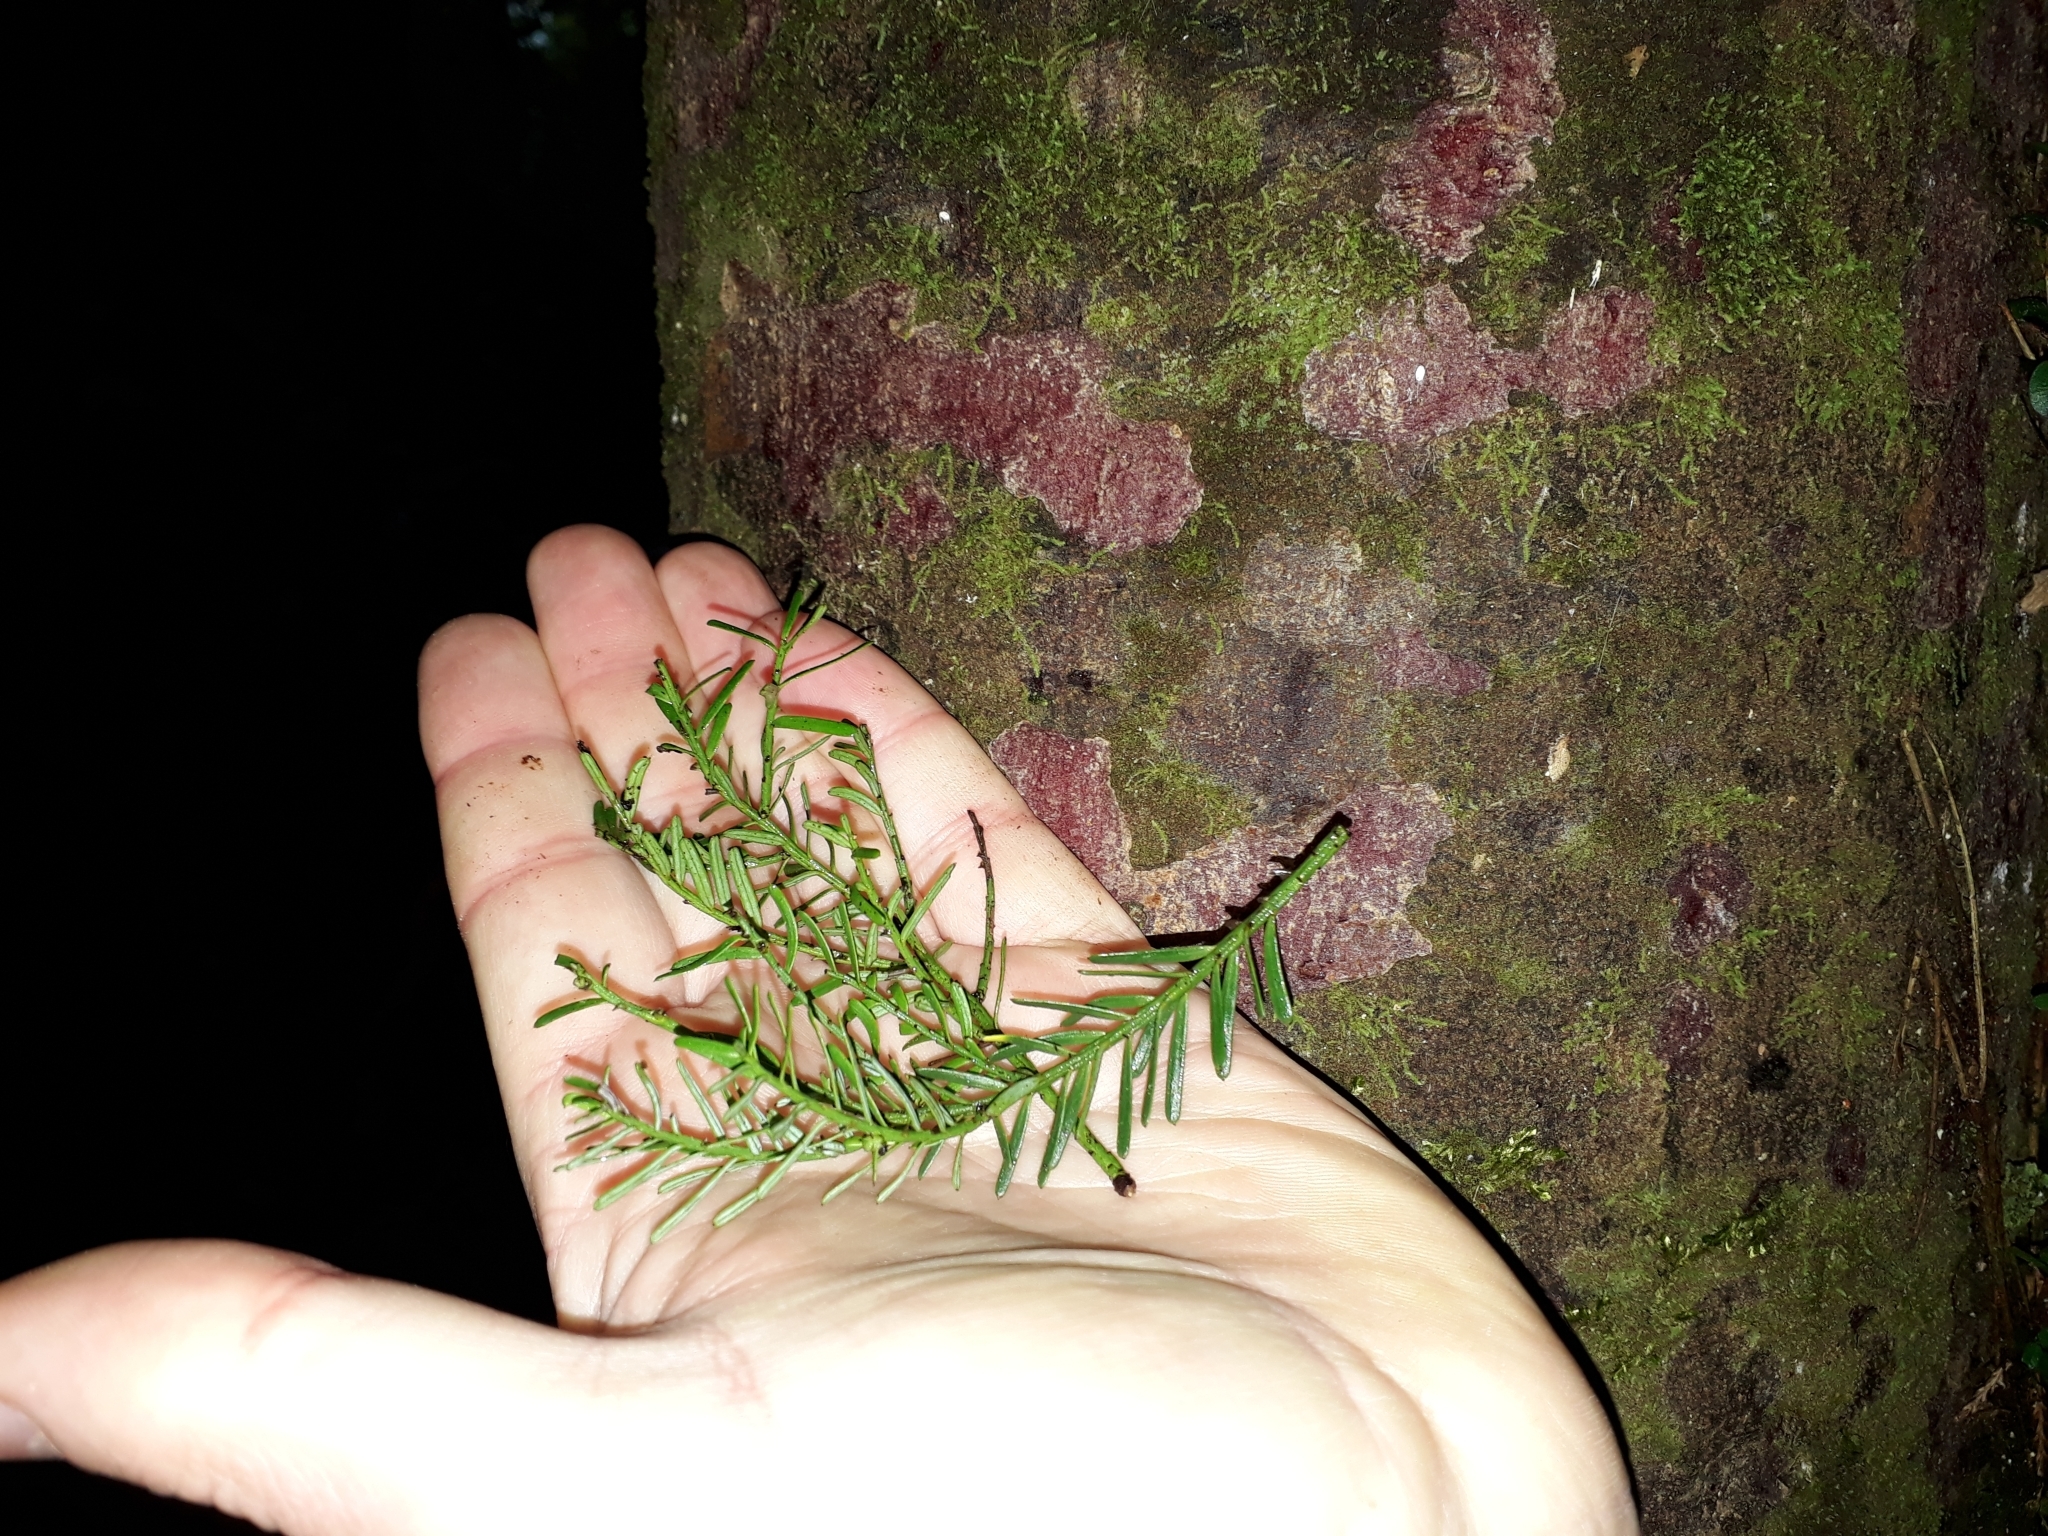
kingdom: Plantae
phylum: Tracheophyta
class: Pinopsida
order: Pinales
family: Podocarpaceae
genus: Prumnopitys
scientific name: Prumnopitys taxifolia
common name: Matai
